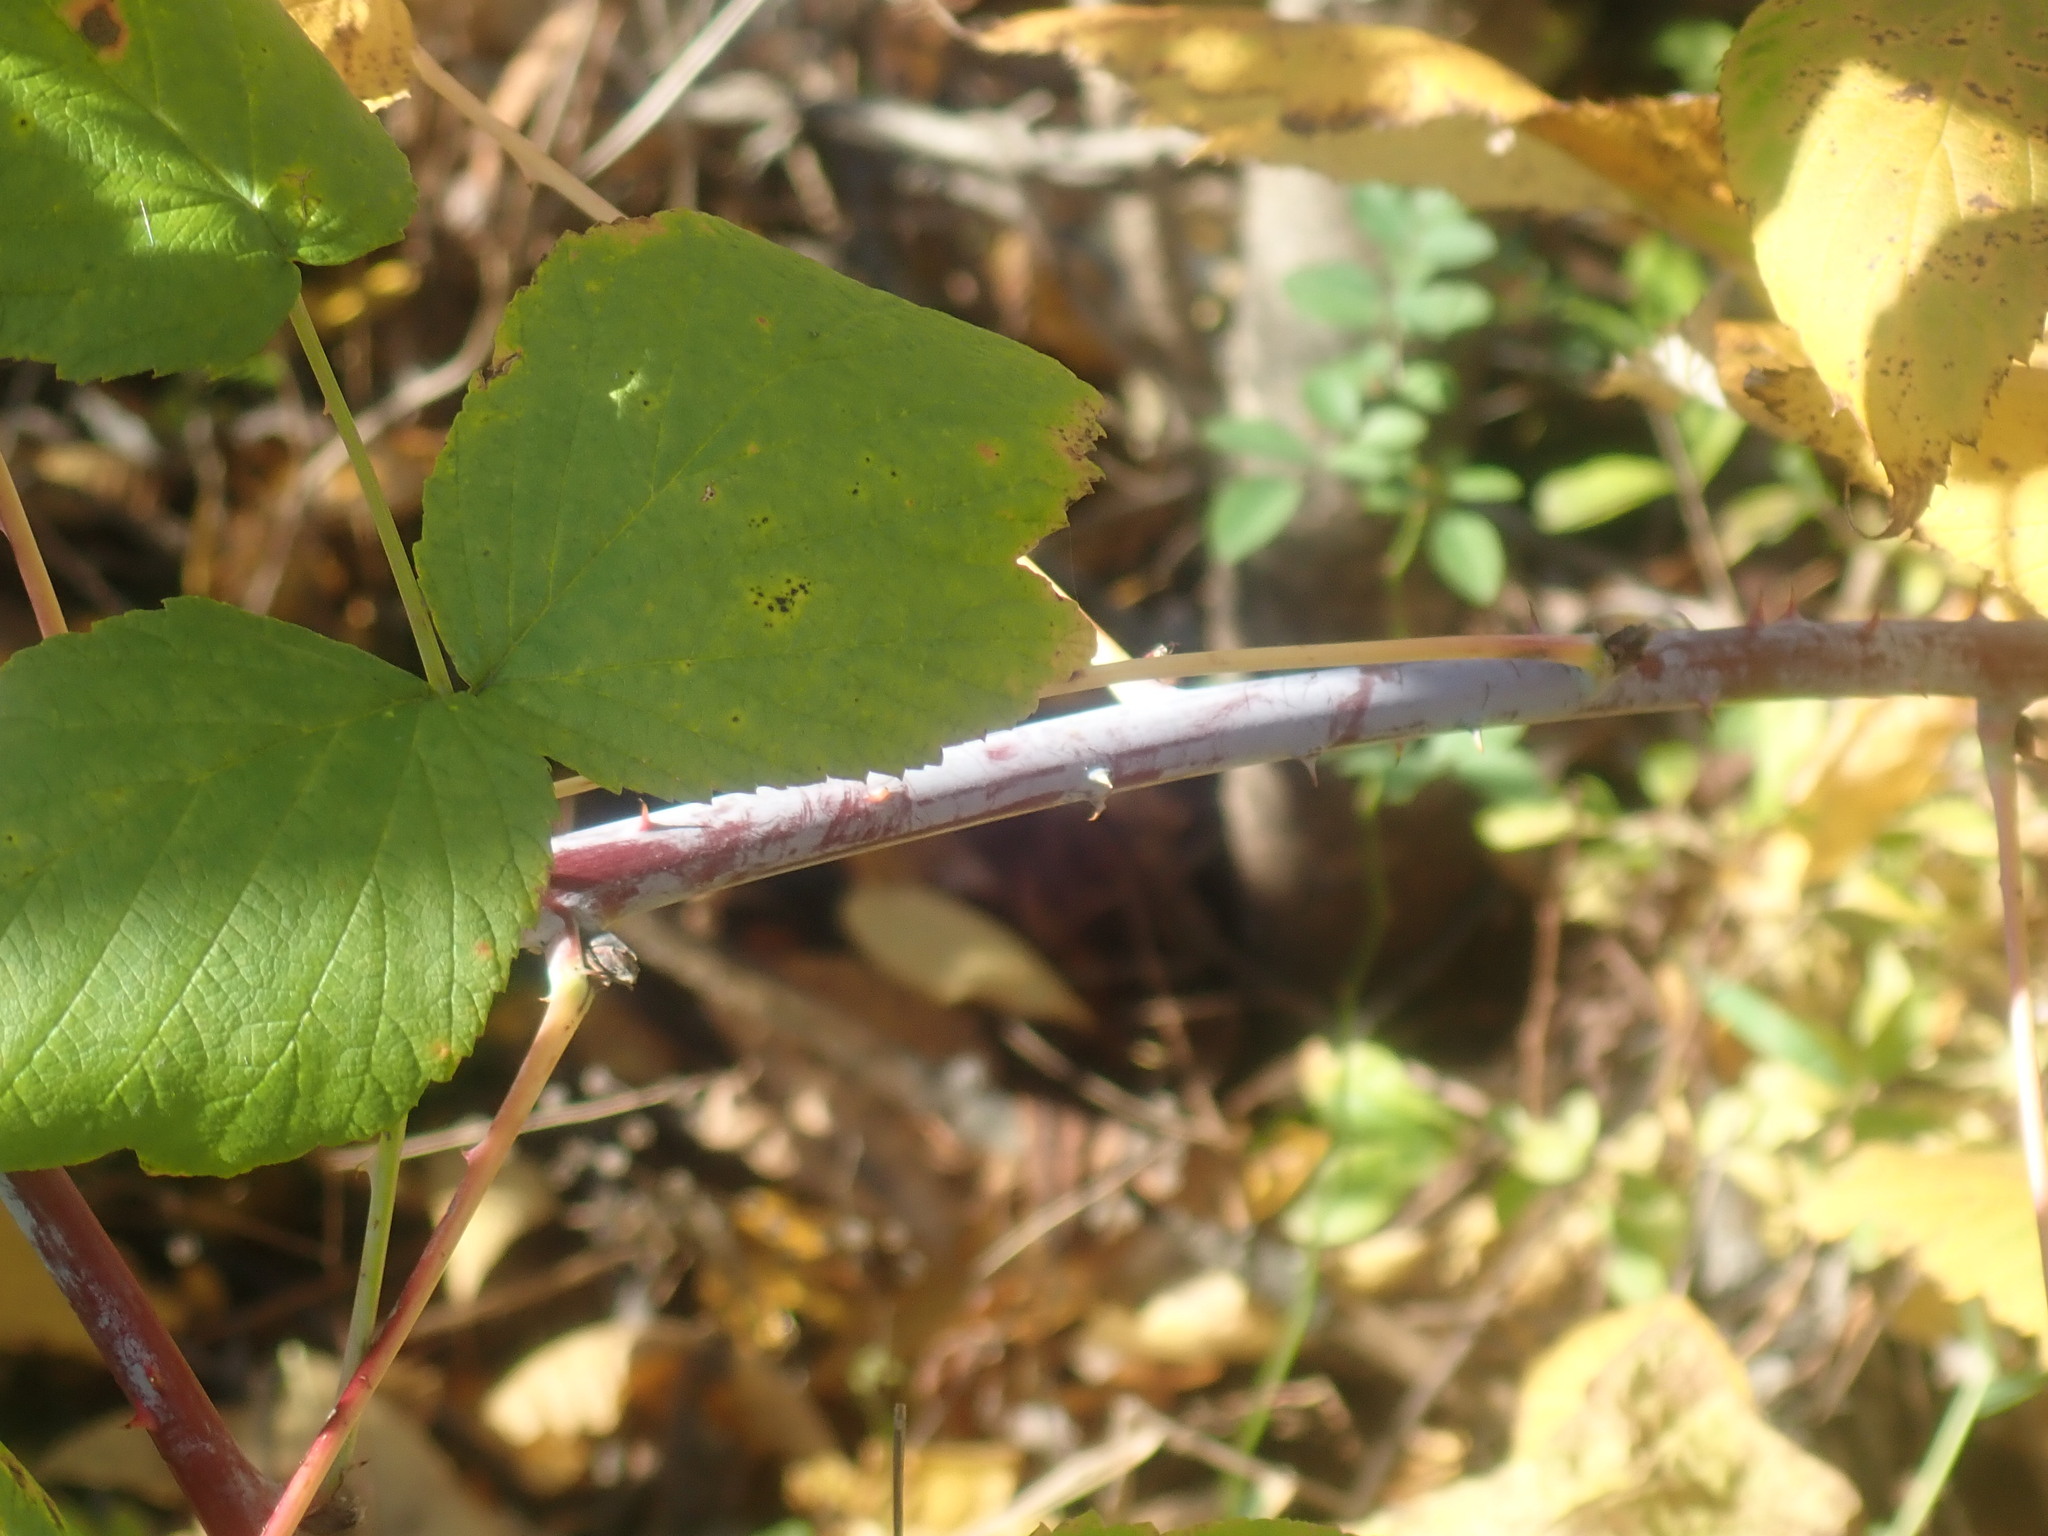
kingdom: Plantae
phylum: Tracheophyta
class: Magnoliopsida
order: Rosales
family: Rosaceae
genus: Rubus
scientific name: Rubus occidentalis
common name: Black raspberry
